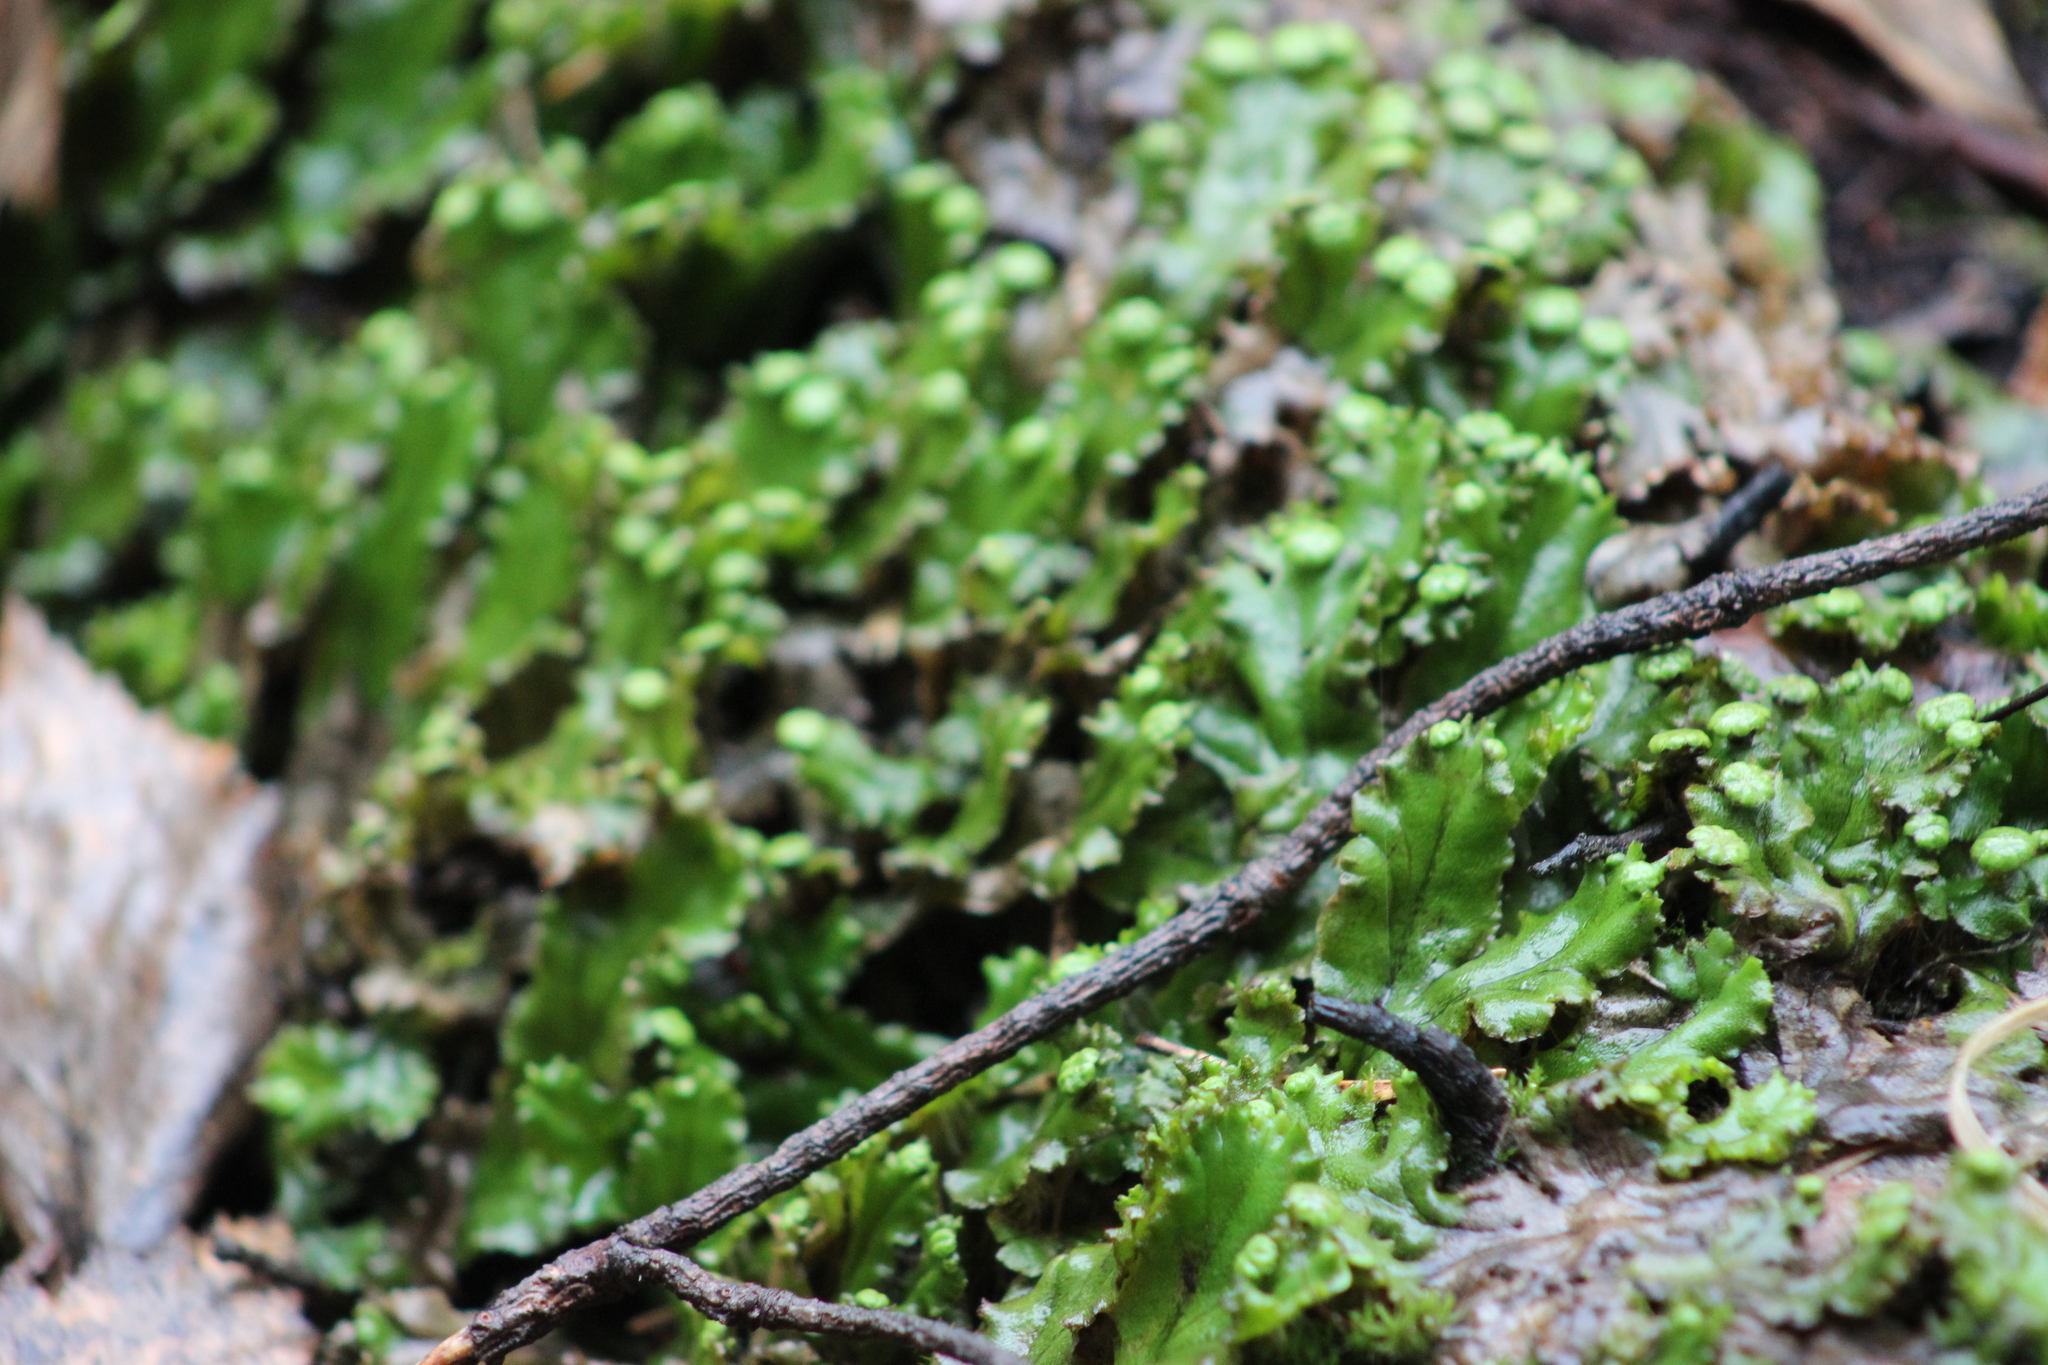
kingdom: Plantae
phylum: Marchantiophyta
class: Marchantiopsida
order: Marchantiales
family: Marchantiaceae
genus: Marchantia
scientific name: Marchantia polymorpha
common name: Common liverwort
